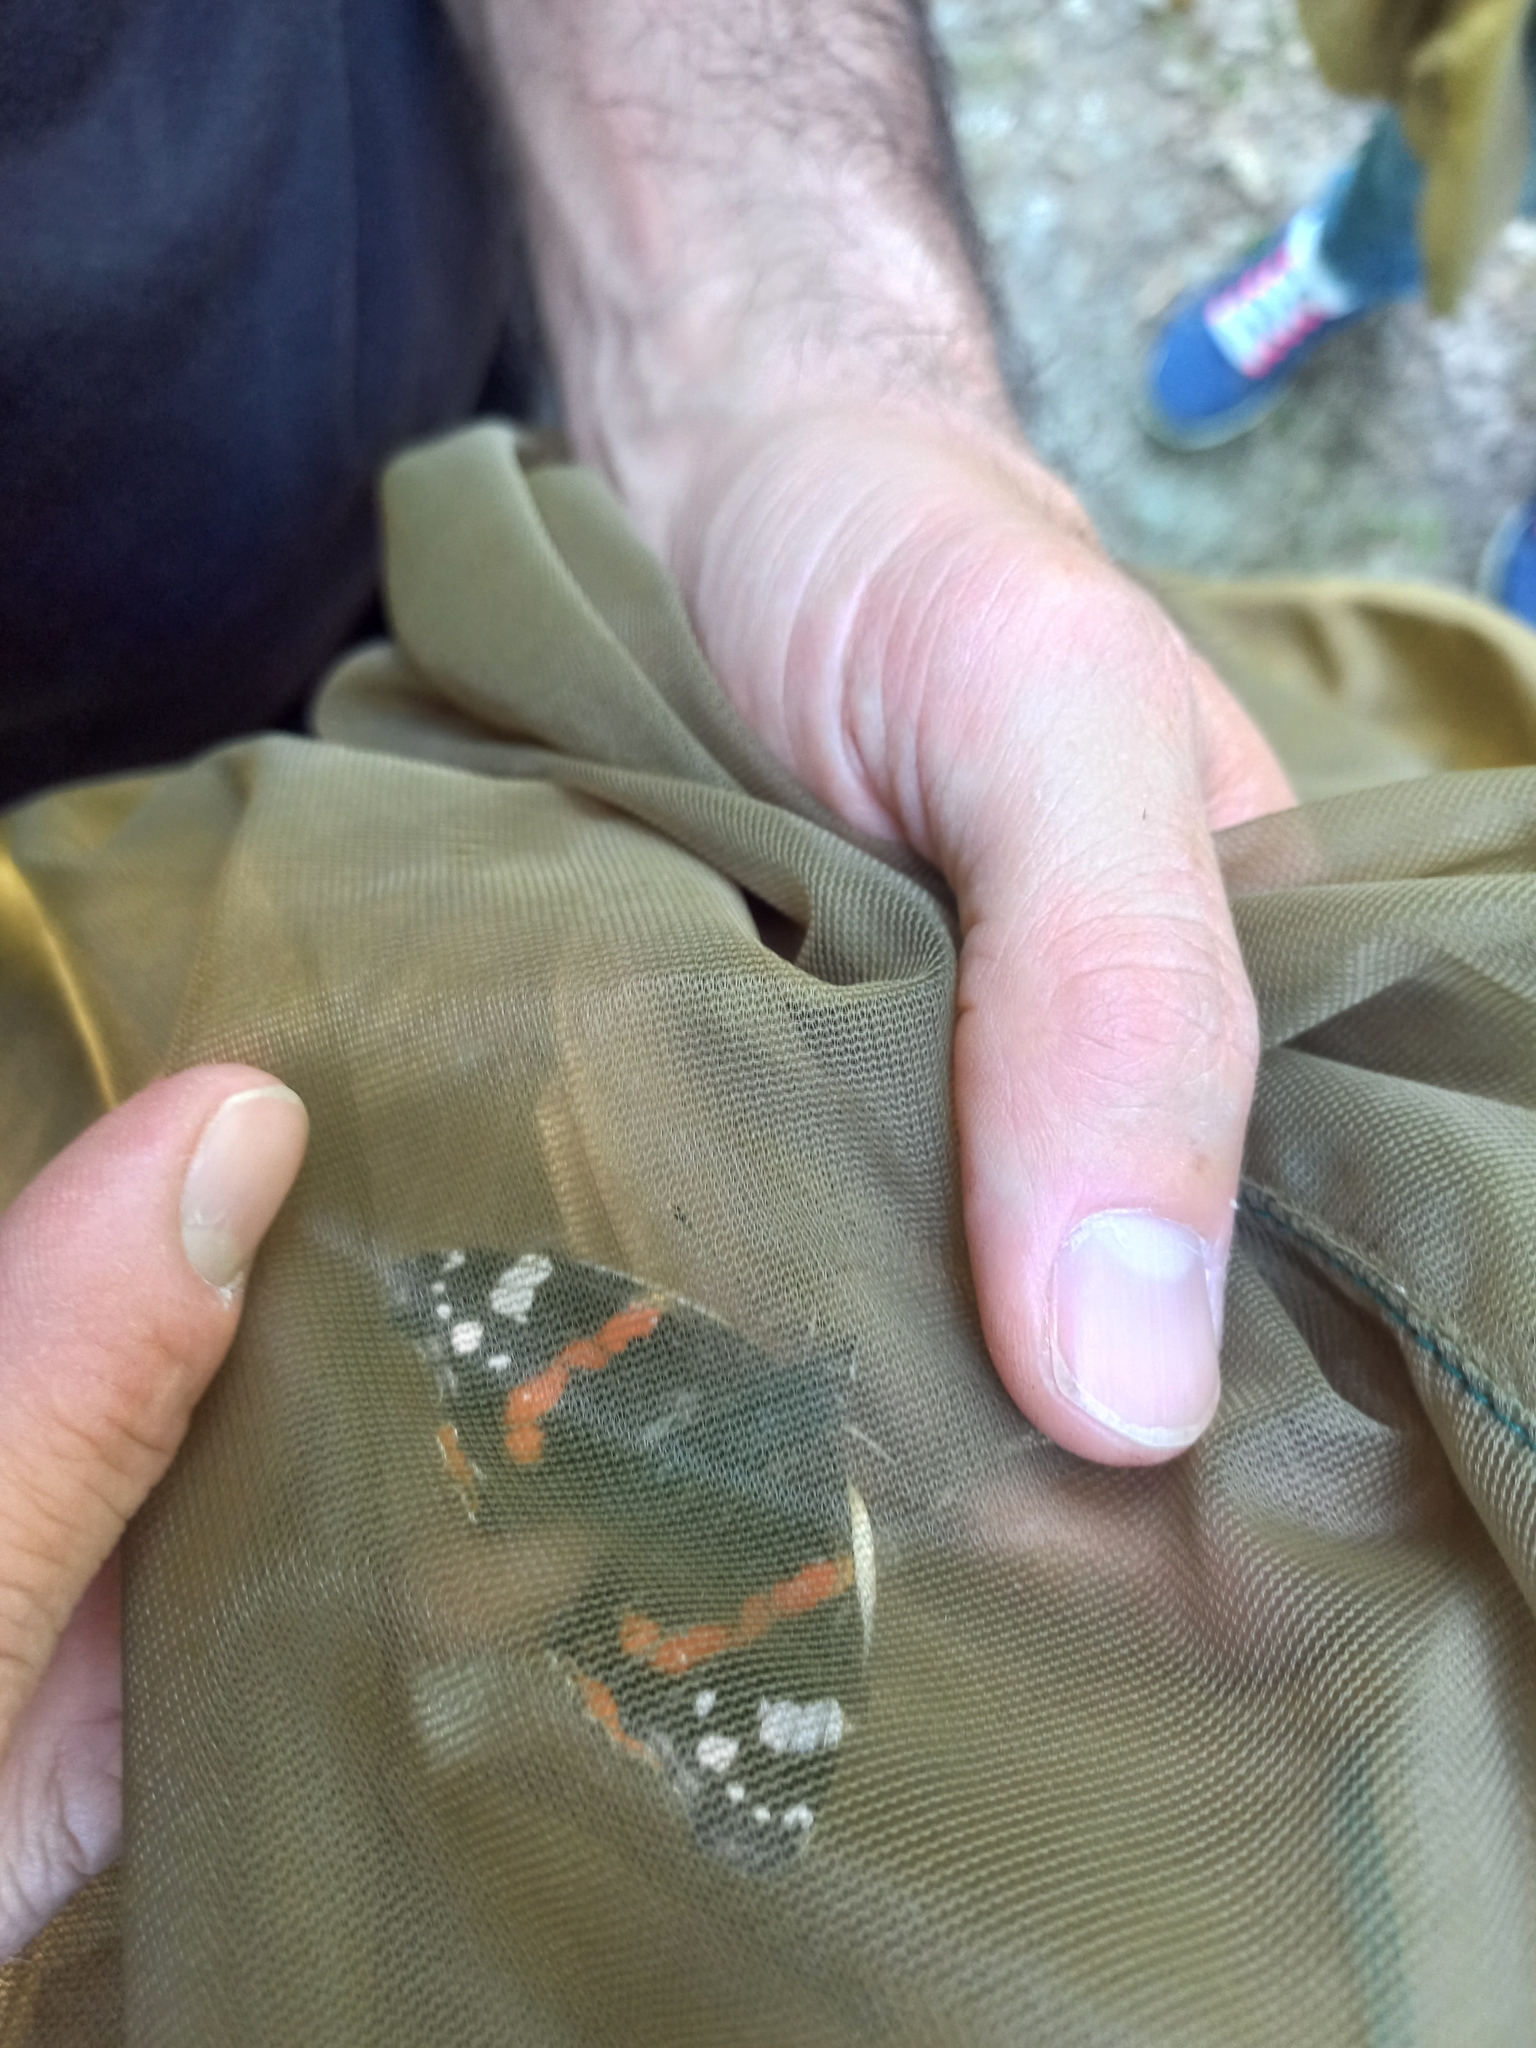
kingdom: Animalia
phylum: Arthropoda
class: Insecta
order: Lepidoptera
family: Nymphalidae
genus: Vanessa
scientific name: Vanessa atalanta
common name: Red admiral
